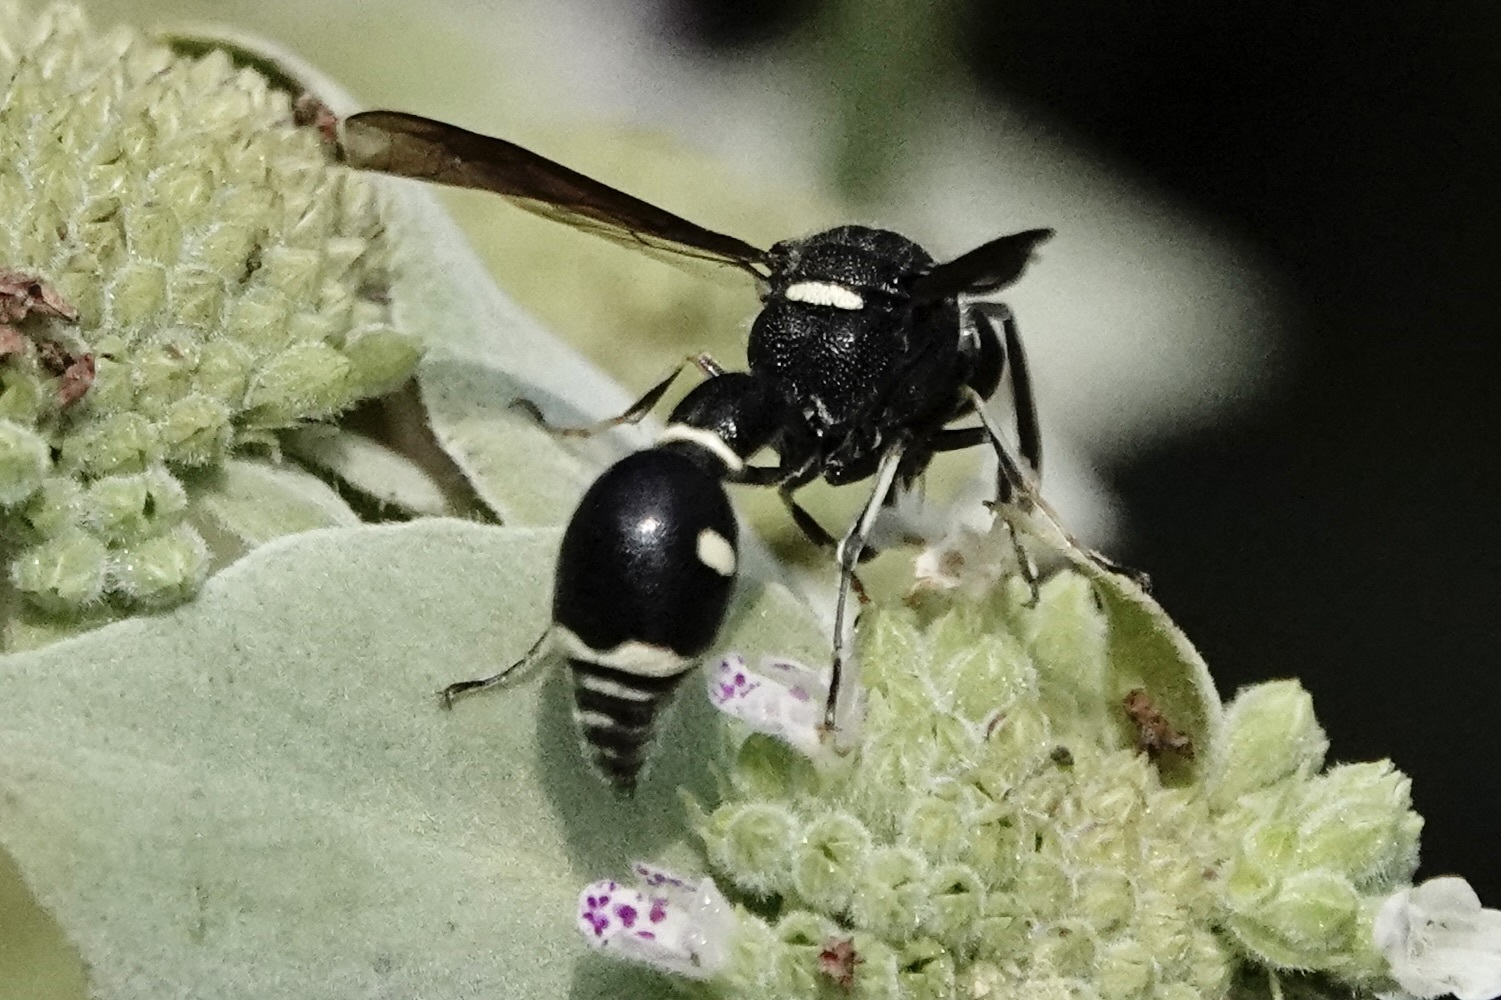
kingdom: Animalia
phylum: Arthropoda
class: Insecta
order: Hymenoptera
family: Vespidae
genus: Eumenes
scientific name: Eumenes fraternus
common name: Fraternal potter wasp
